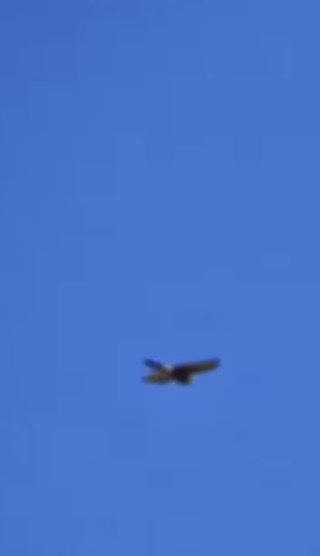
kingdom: Animalia
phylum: Chordata
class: Aves
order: Accipitriformes
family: Accipitridae
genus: Accipiter
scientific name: Accipiter nisus
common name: Eurasian sparrowhawk
